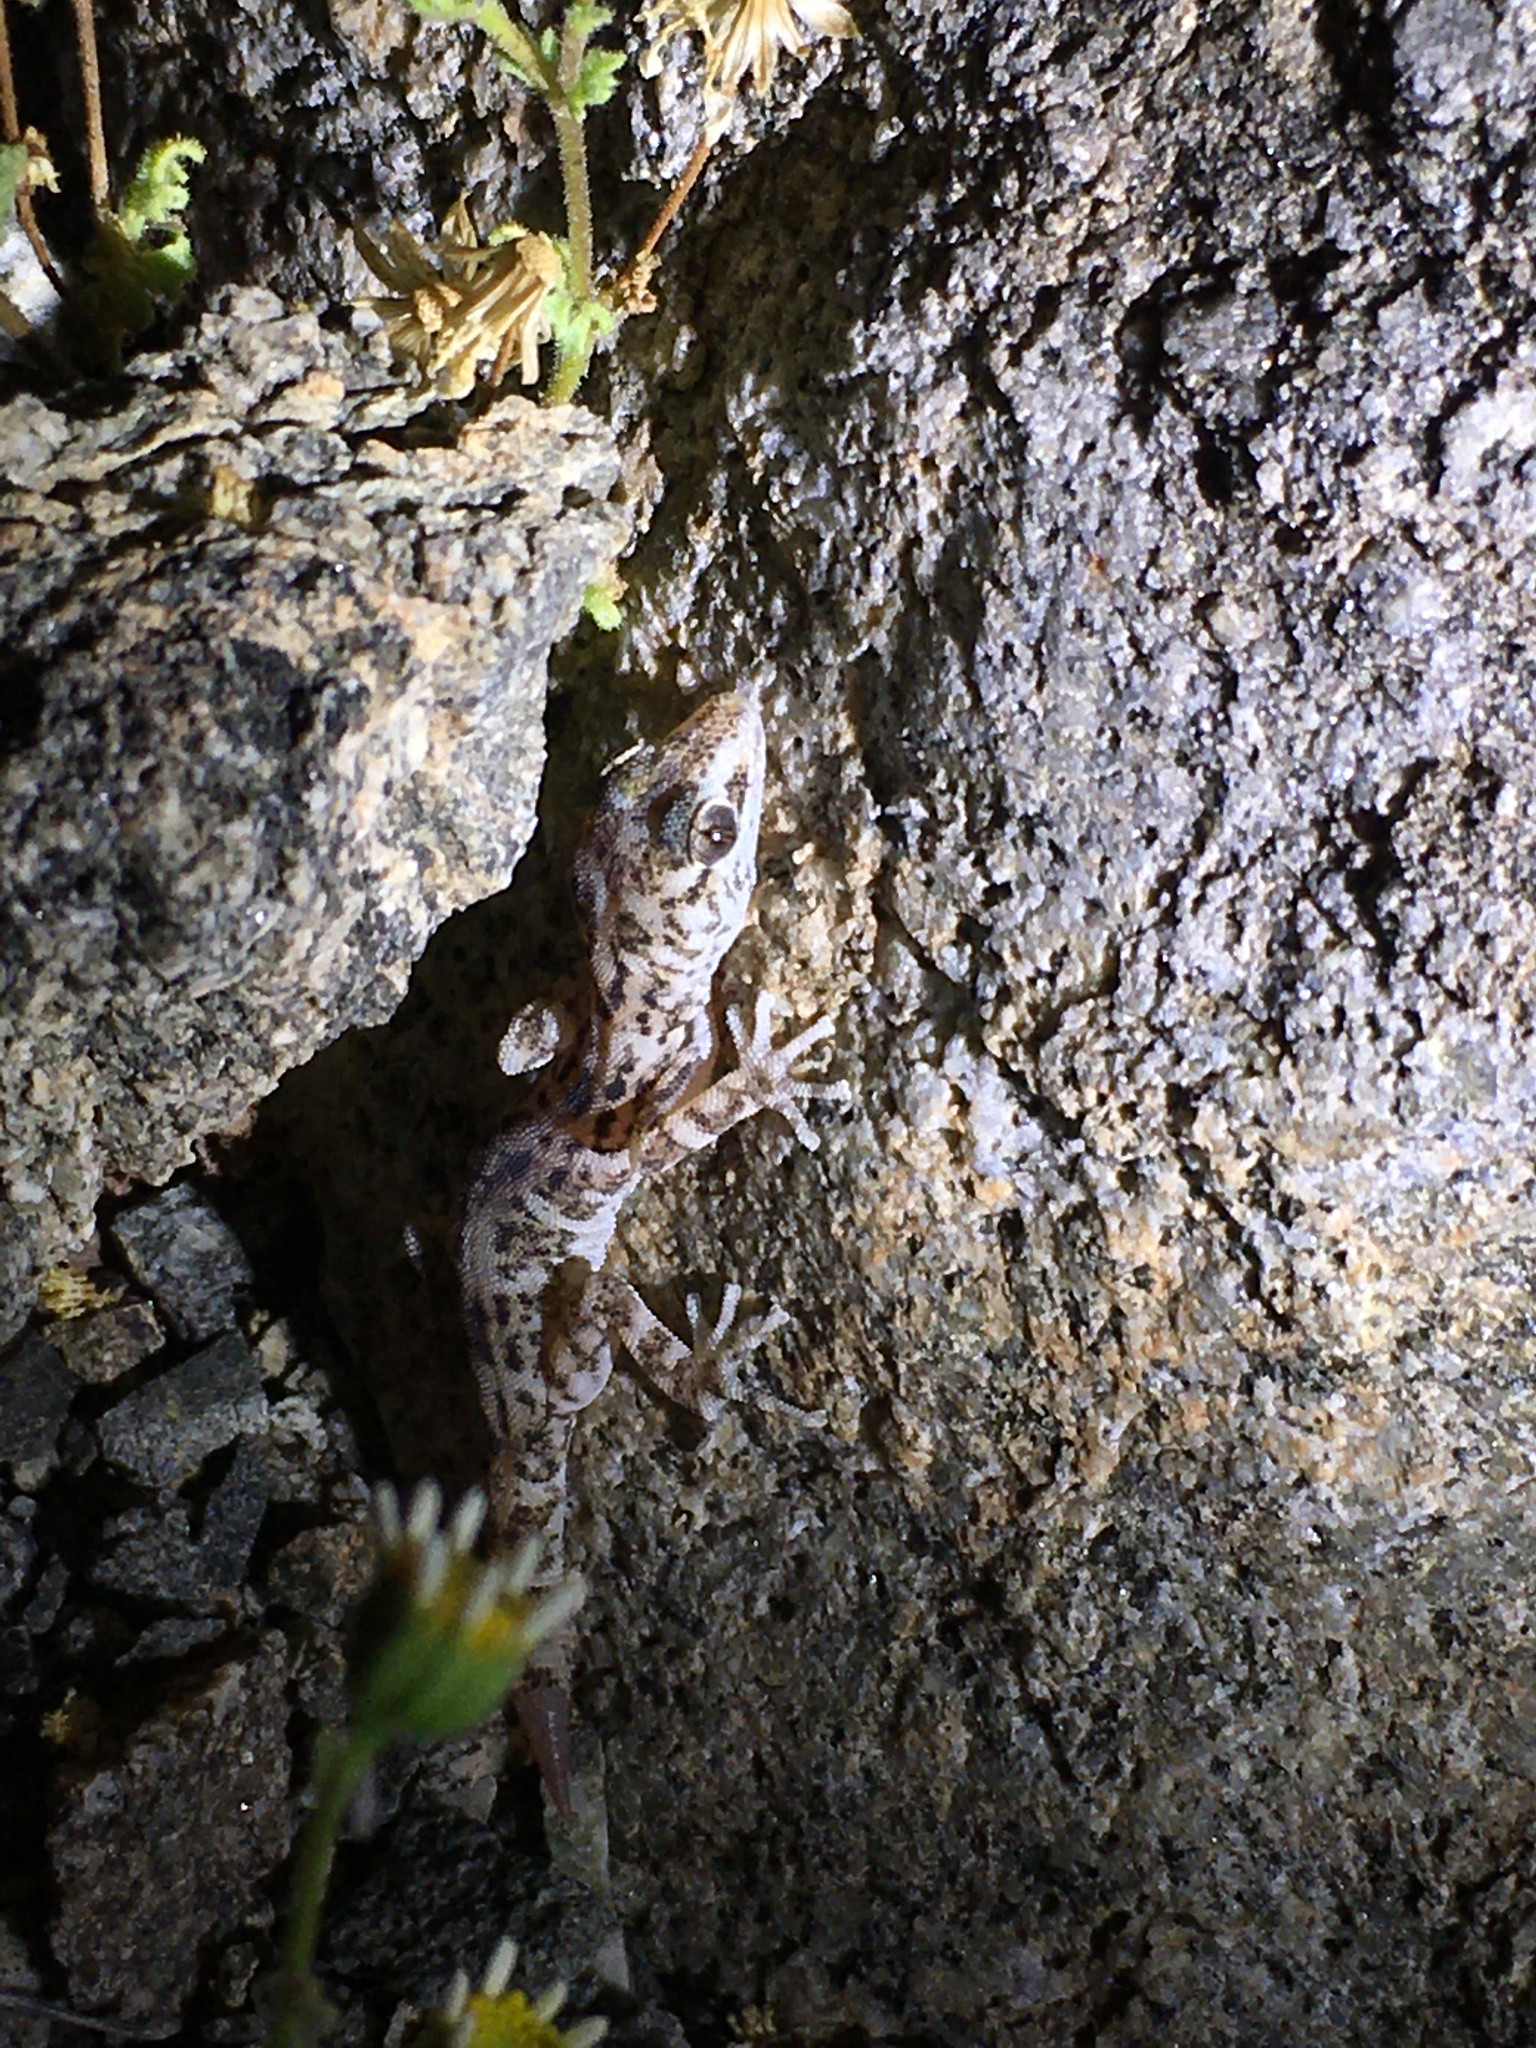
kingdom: Animalia
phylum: Chordata
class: Squamata
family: Phyllodactylidae
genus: Phyllodactylus
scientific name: Phyllodactylus gerrhopygus
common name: South american leaf-toed gecko
